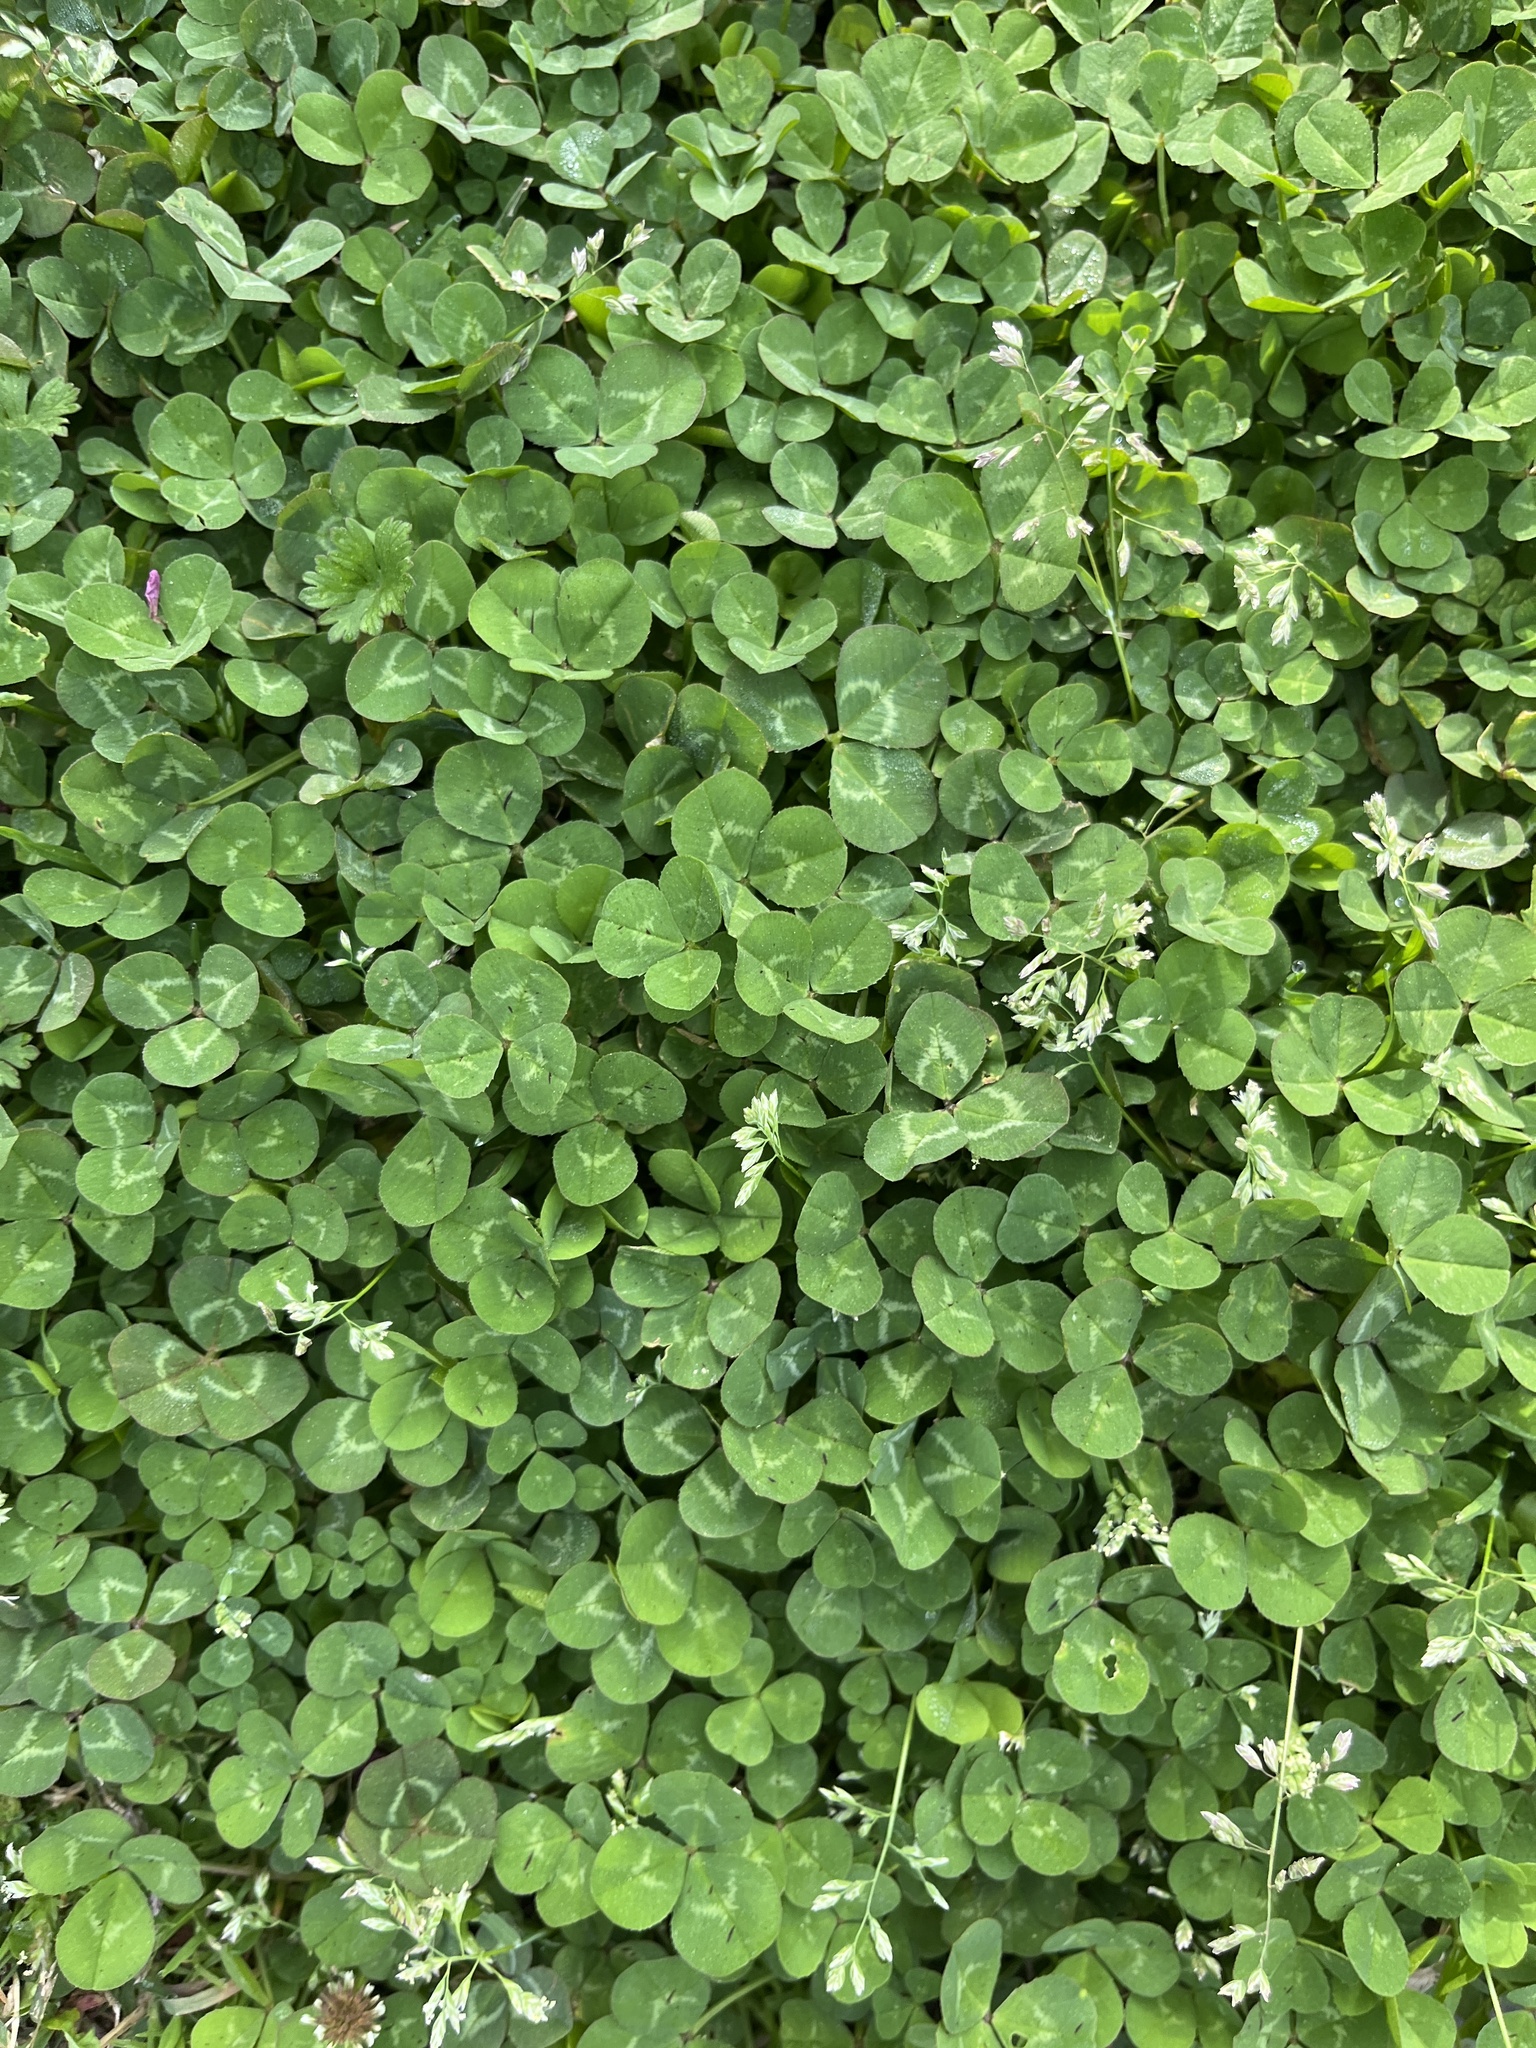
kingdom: Plantae
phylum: Tracheophyta
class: Magnoliopsida
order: Fabales
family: Fabaceae
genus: Trifolium
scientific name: Trifolium repens
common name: White clover
